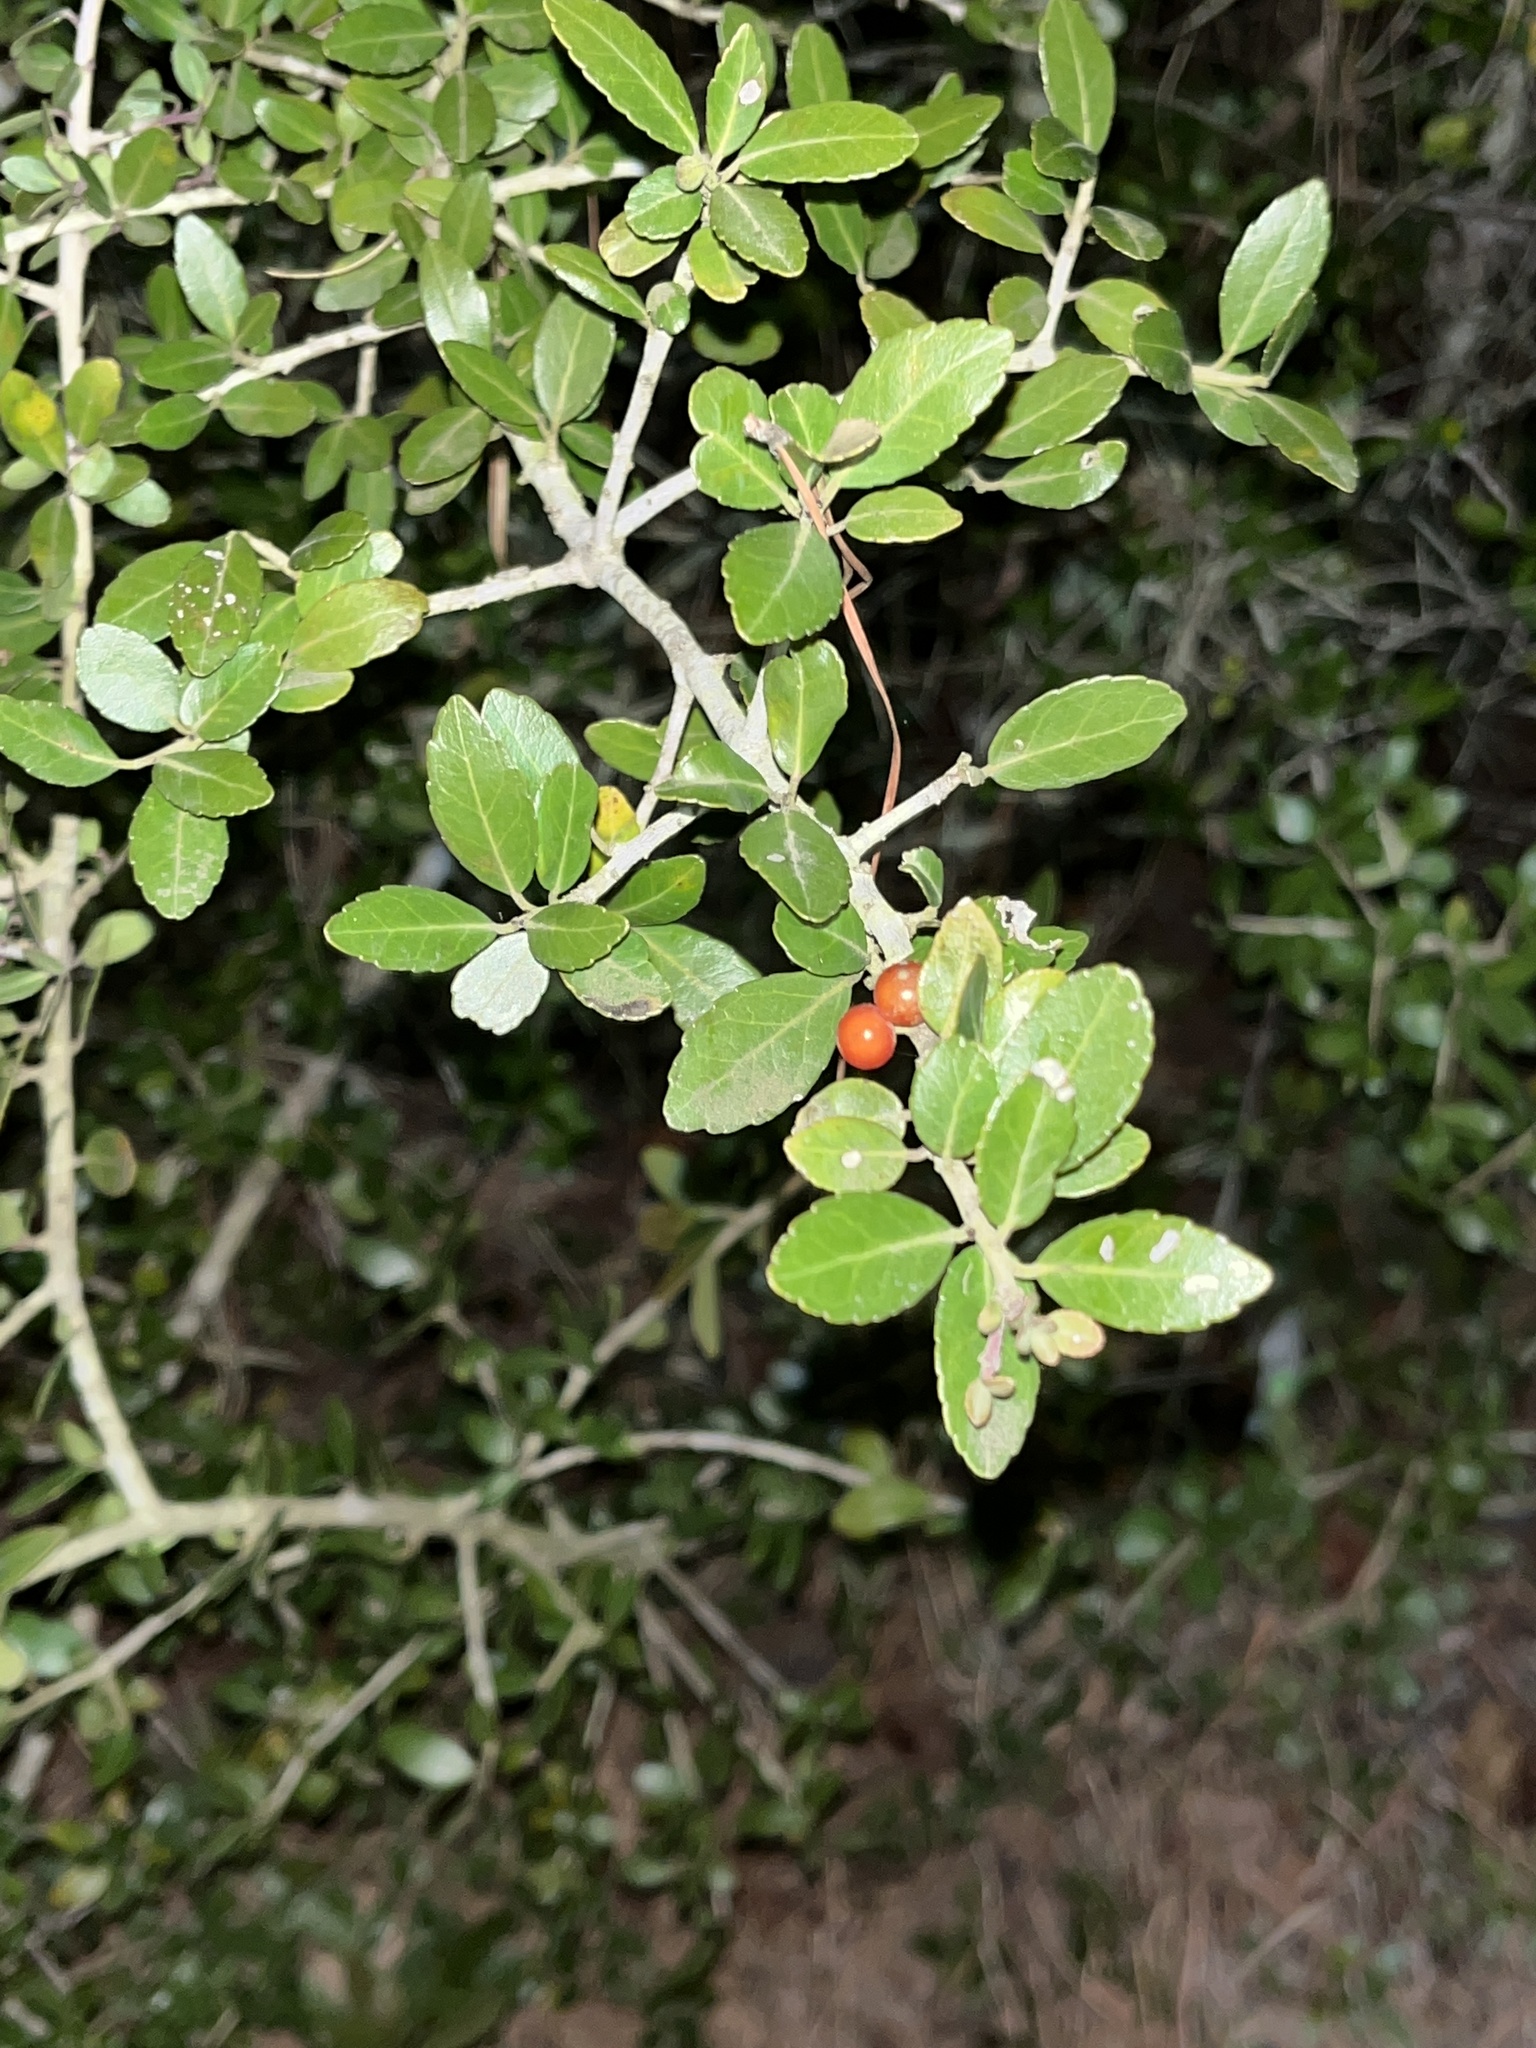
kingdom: Plantae
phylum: Tracheophyta
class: Magnoliopsida
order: Aquifoliales
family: Aquifoliaceae
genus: Ilex
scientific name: Ilex vomitoria
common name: Yaupon holly
